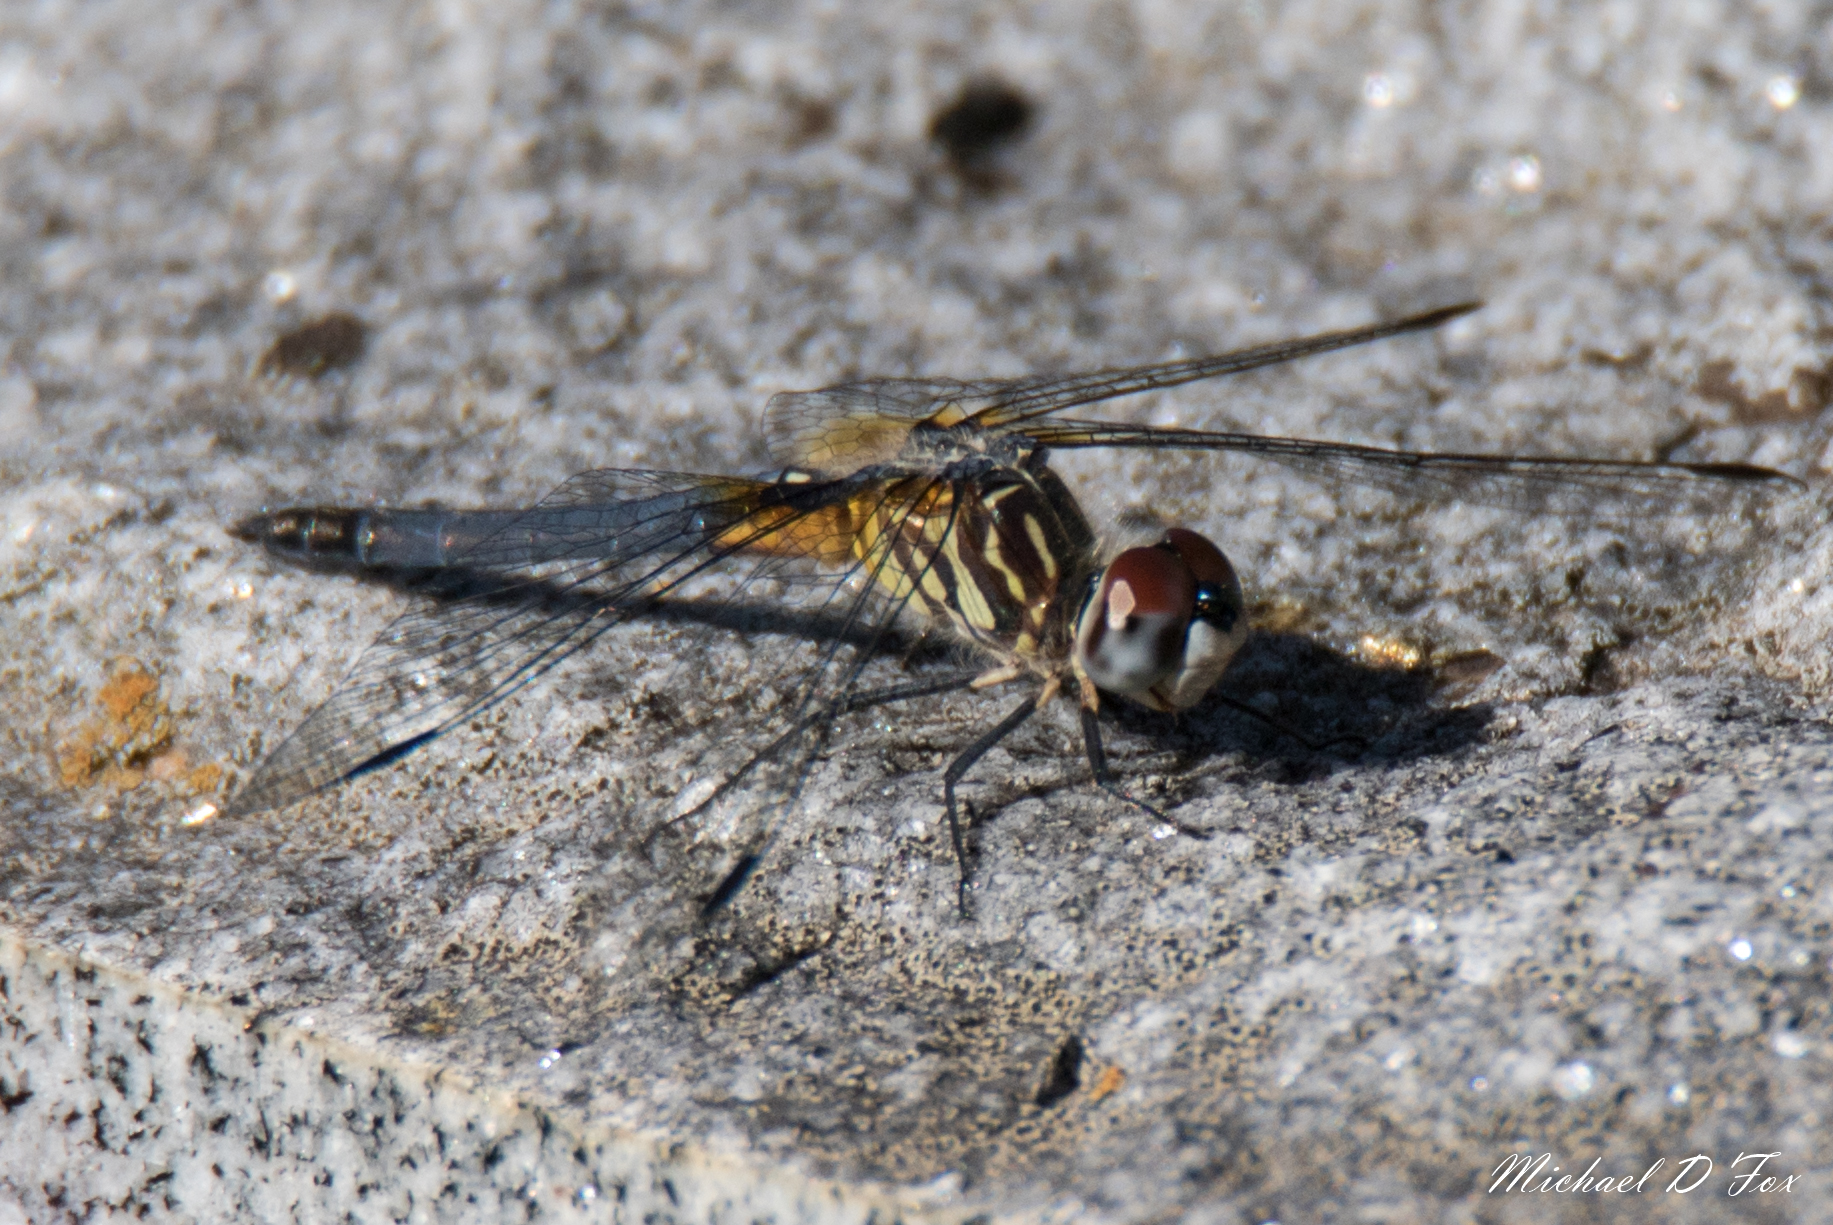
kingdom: Animalia
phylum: Arthropoda
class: Insecta
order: Odonata
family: Libellulidae
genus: Pachydiplax
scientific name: Pachydiplax longipennis
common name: Blue dasher
